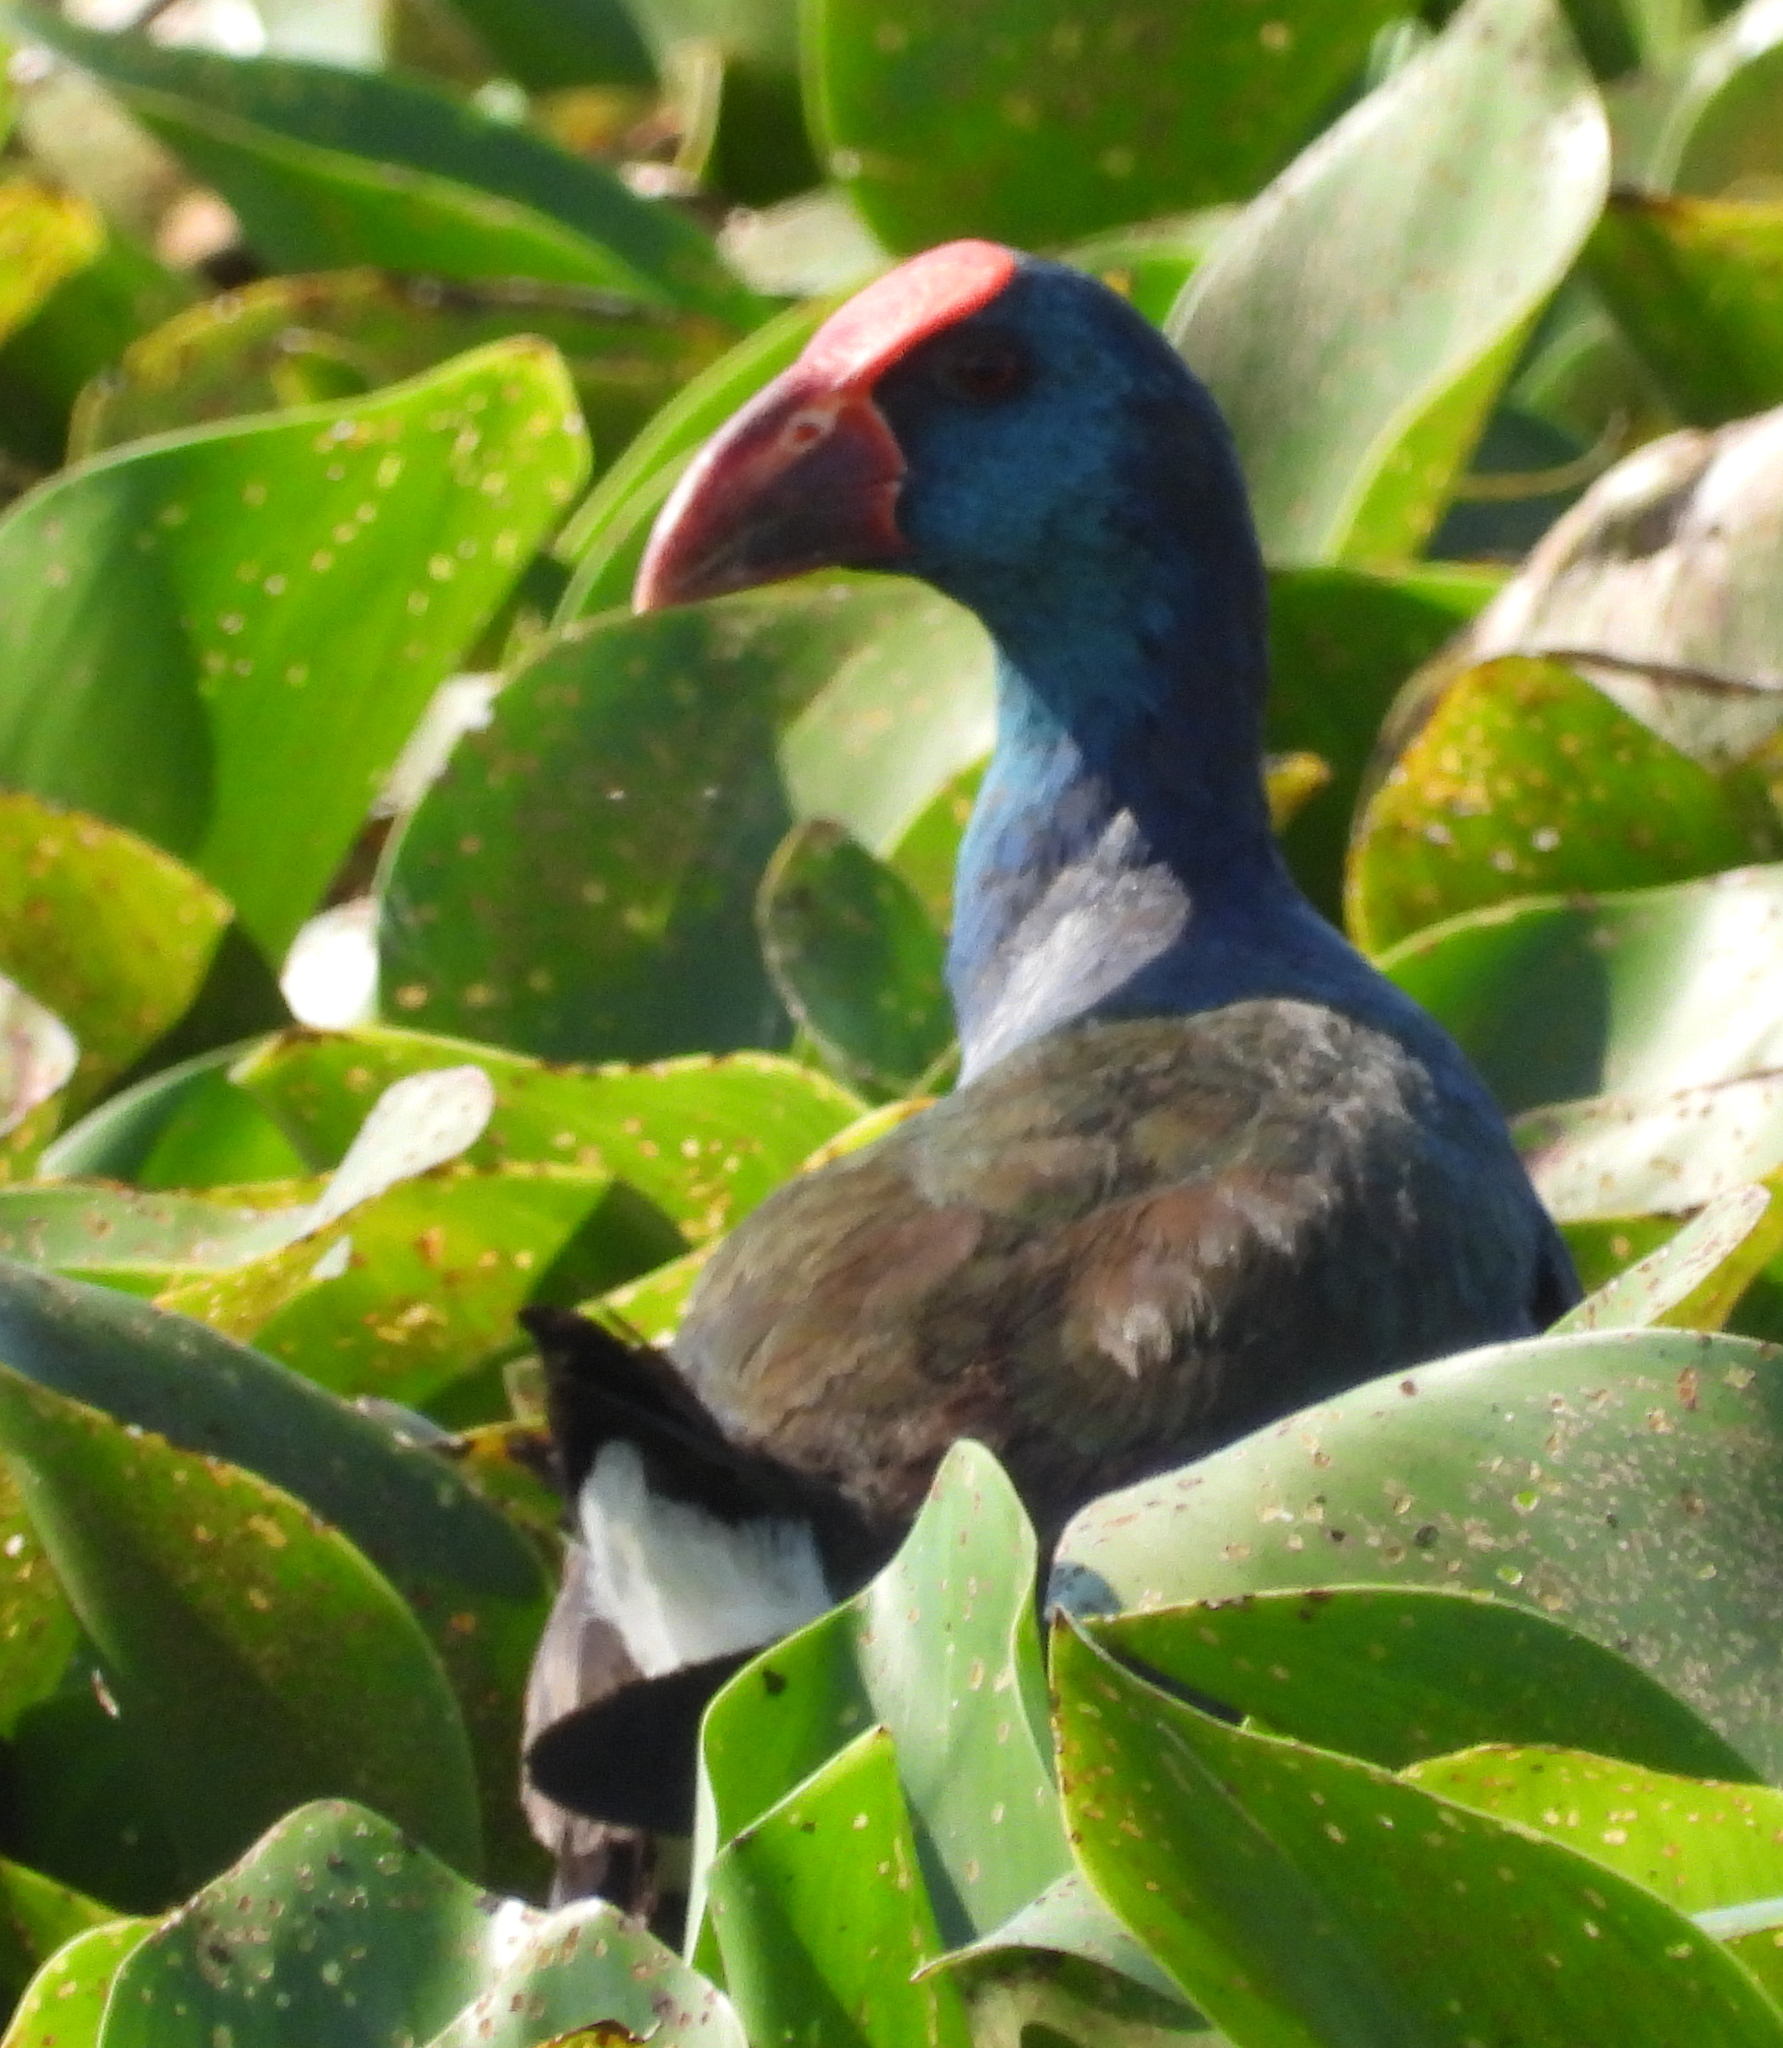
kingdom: Animalia
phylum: Chordata
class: Aves
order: Gruiformes
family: Rallidae
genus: Porphyrio
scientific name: Porphyrio porphyrio
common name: Purple swamphen
